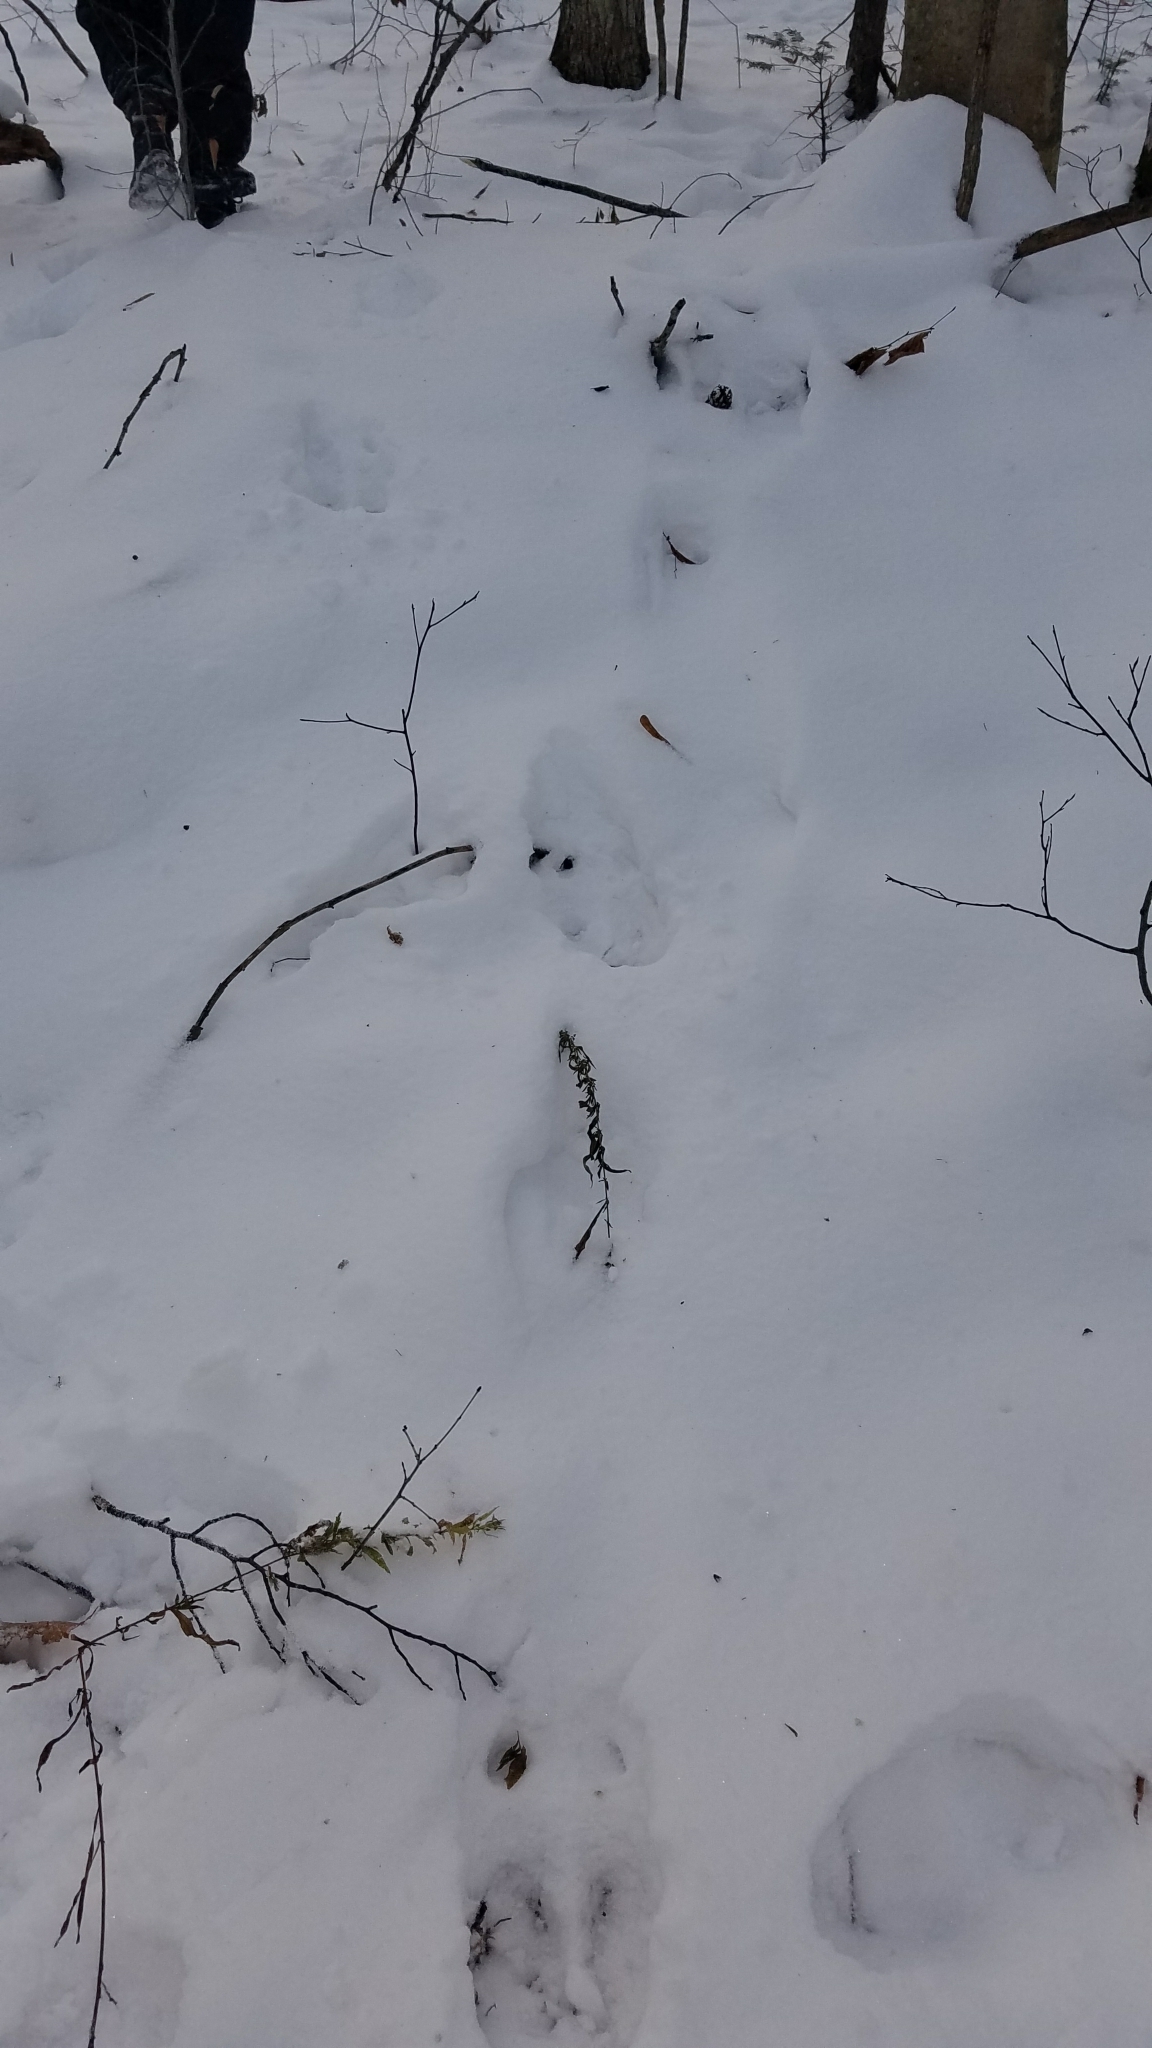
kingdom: Animalia
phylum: Chordata
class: Mammalia
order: Artiodactyla
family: Cervidae
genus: Alces
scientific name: Alces alces
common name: Moose
